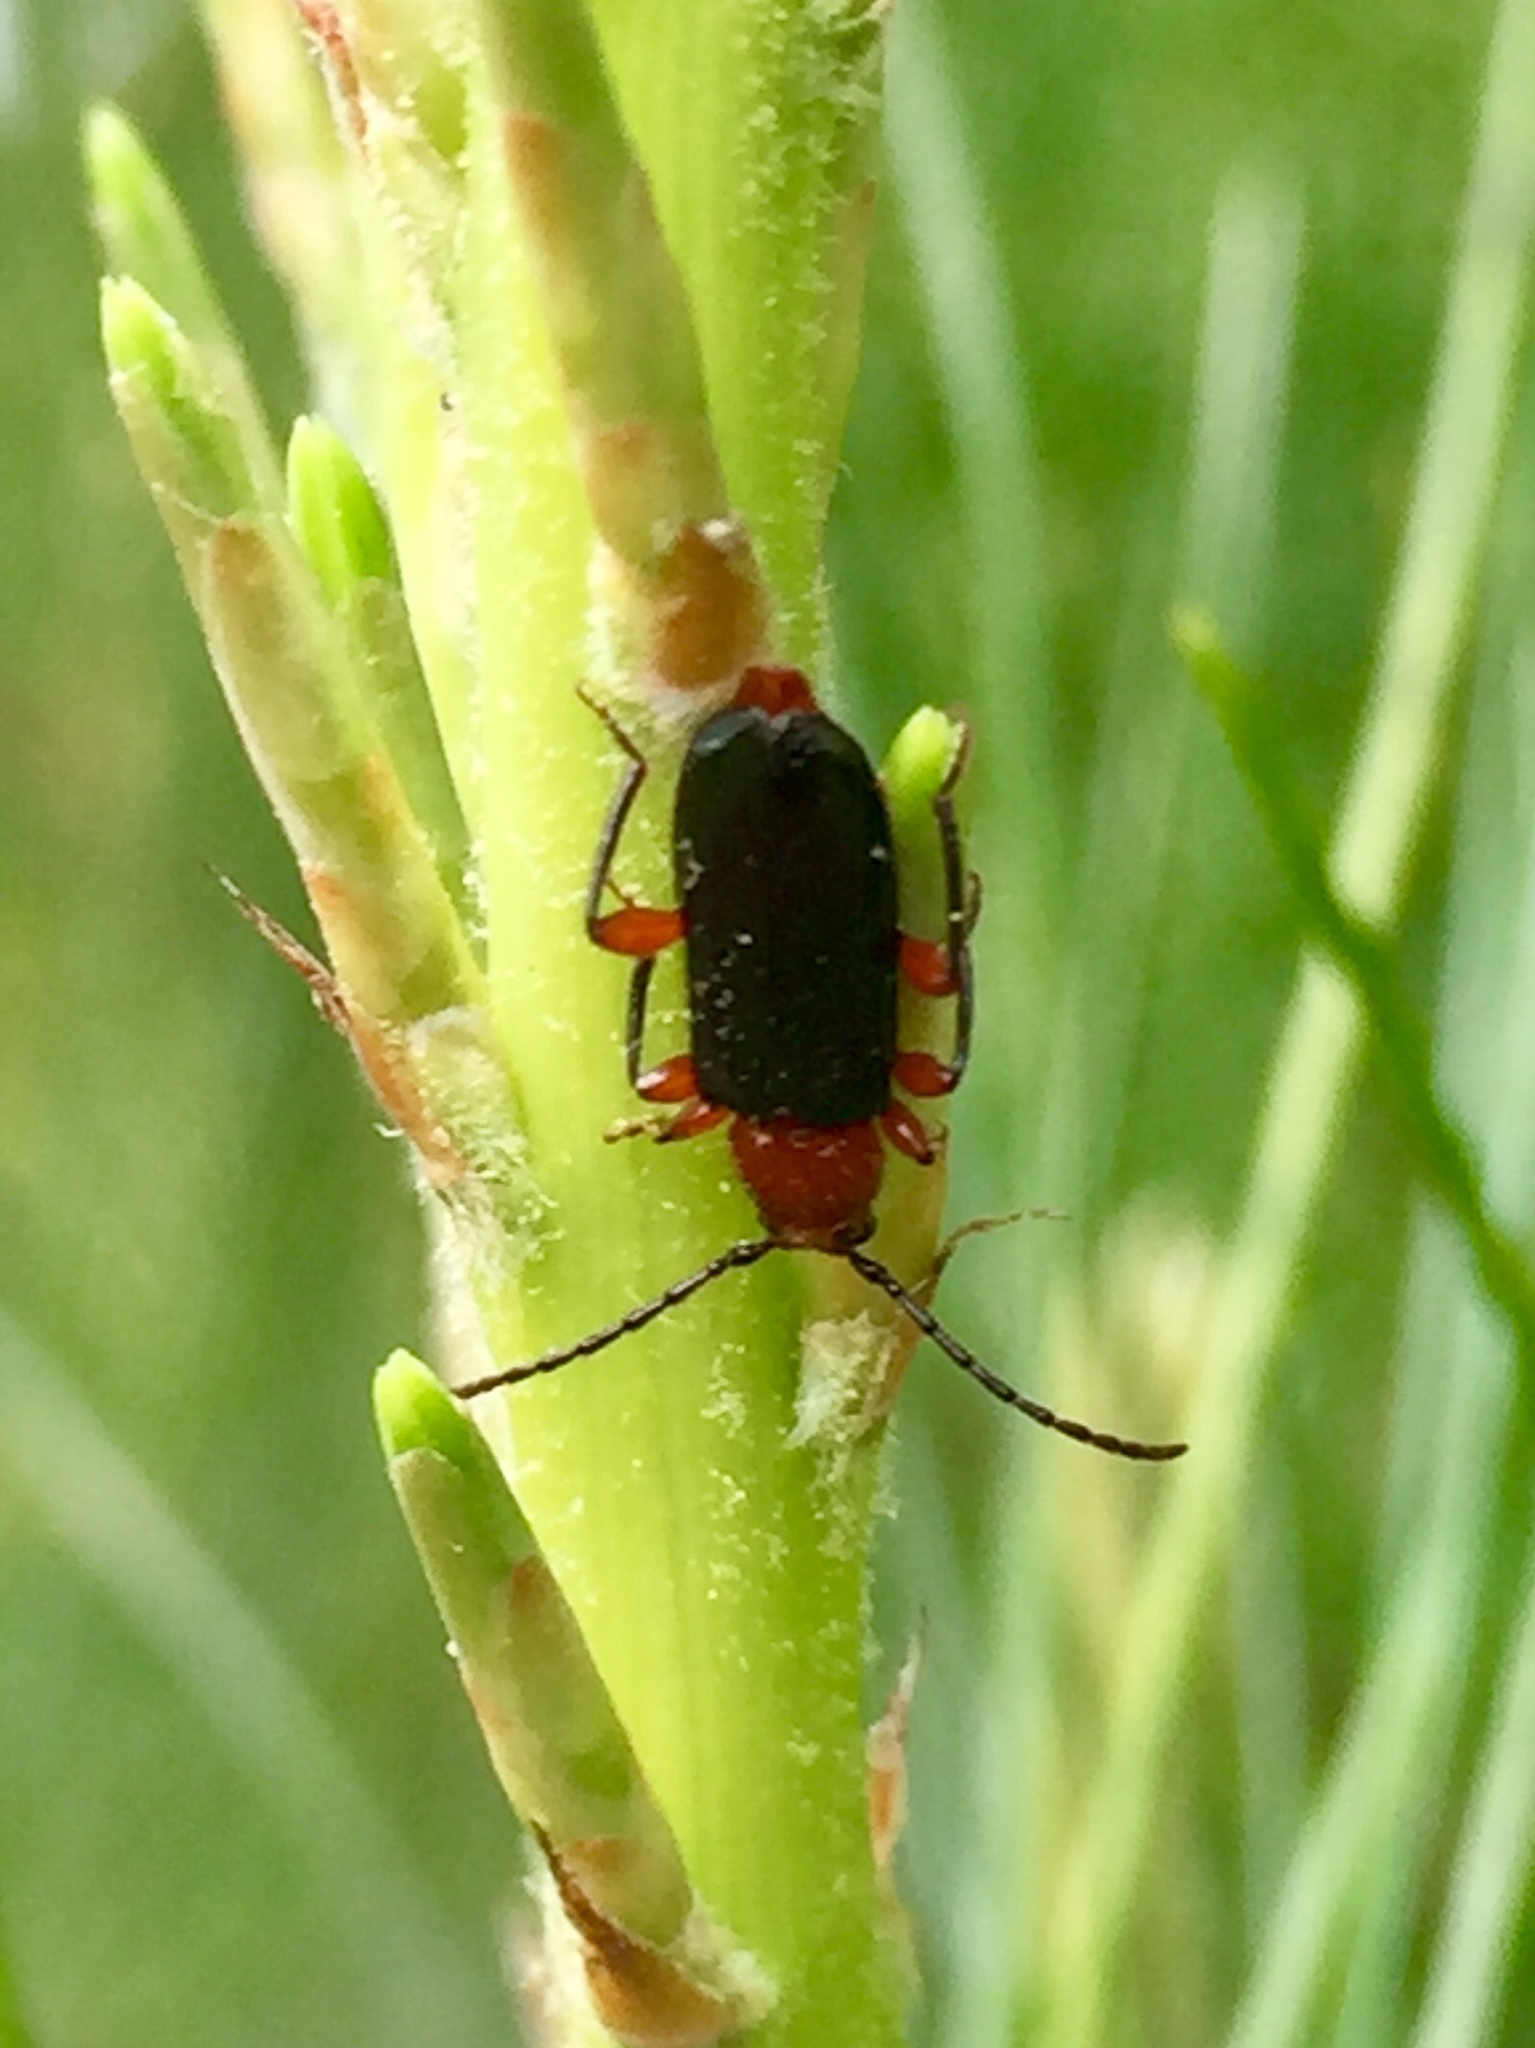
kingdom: Animalia
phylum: Arthropoda
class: Insecta
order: Coleoptera
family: Cerambycidae
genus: Phymatodes
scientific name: Phymatodes amoenus
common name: Grape-vine phymatodes
